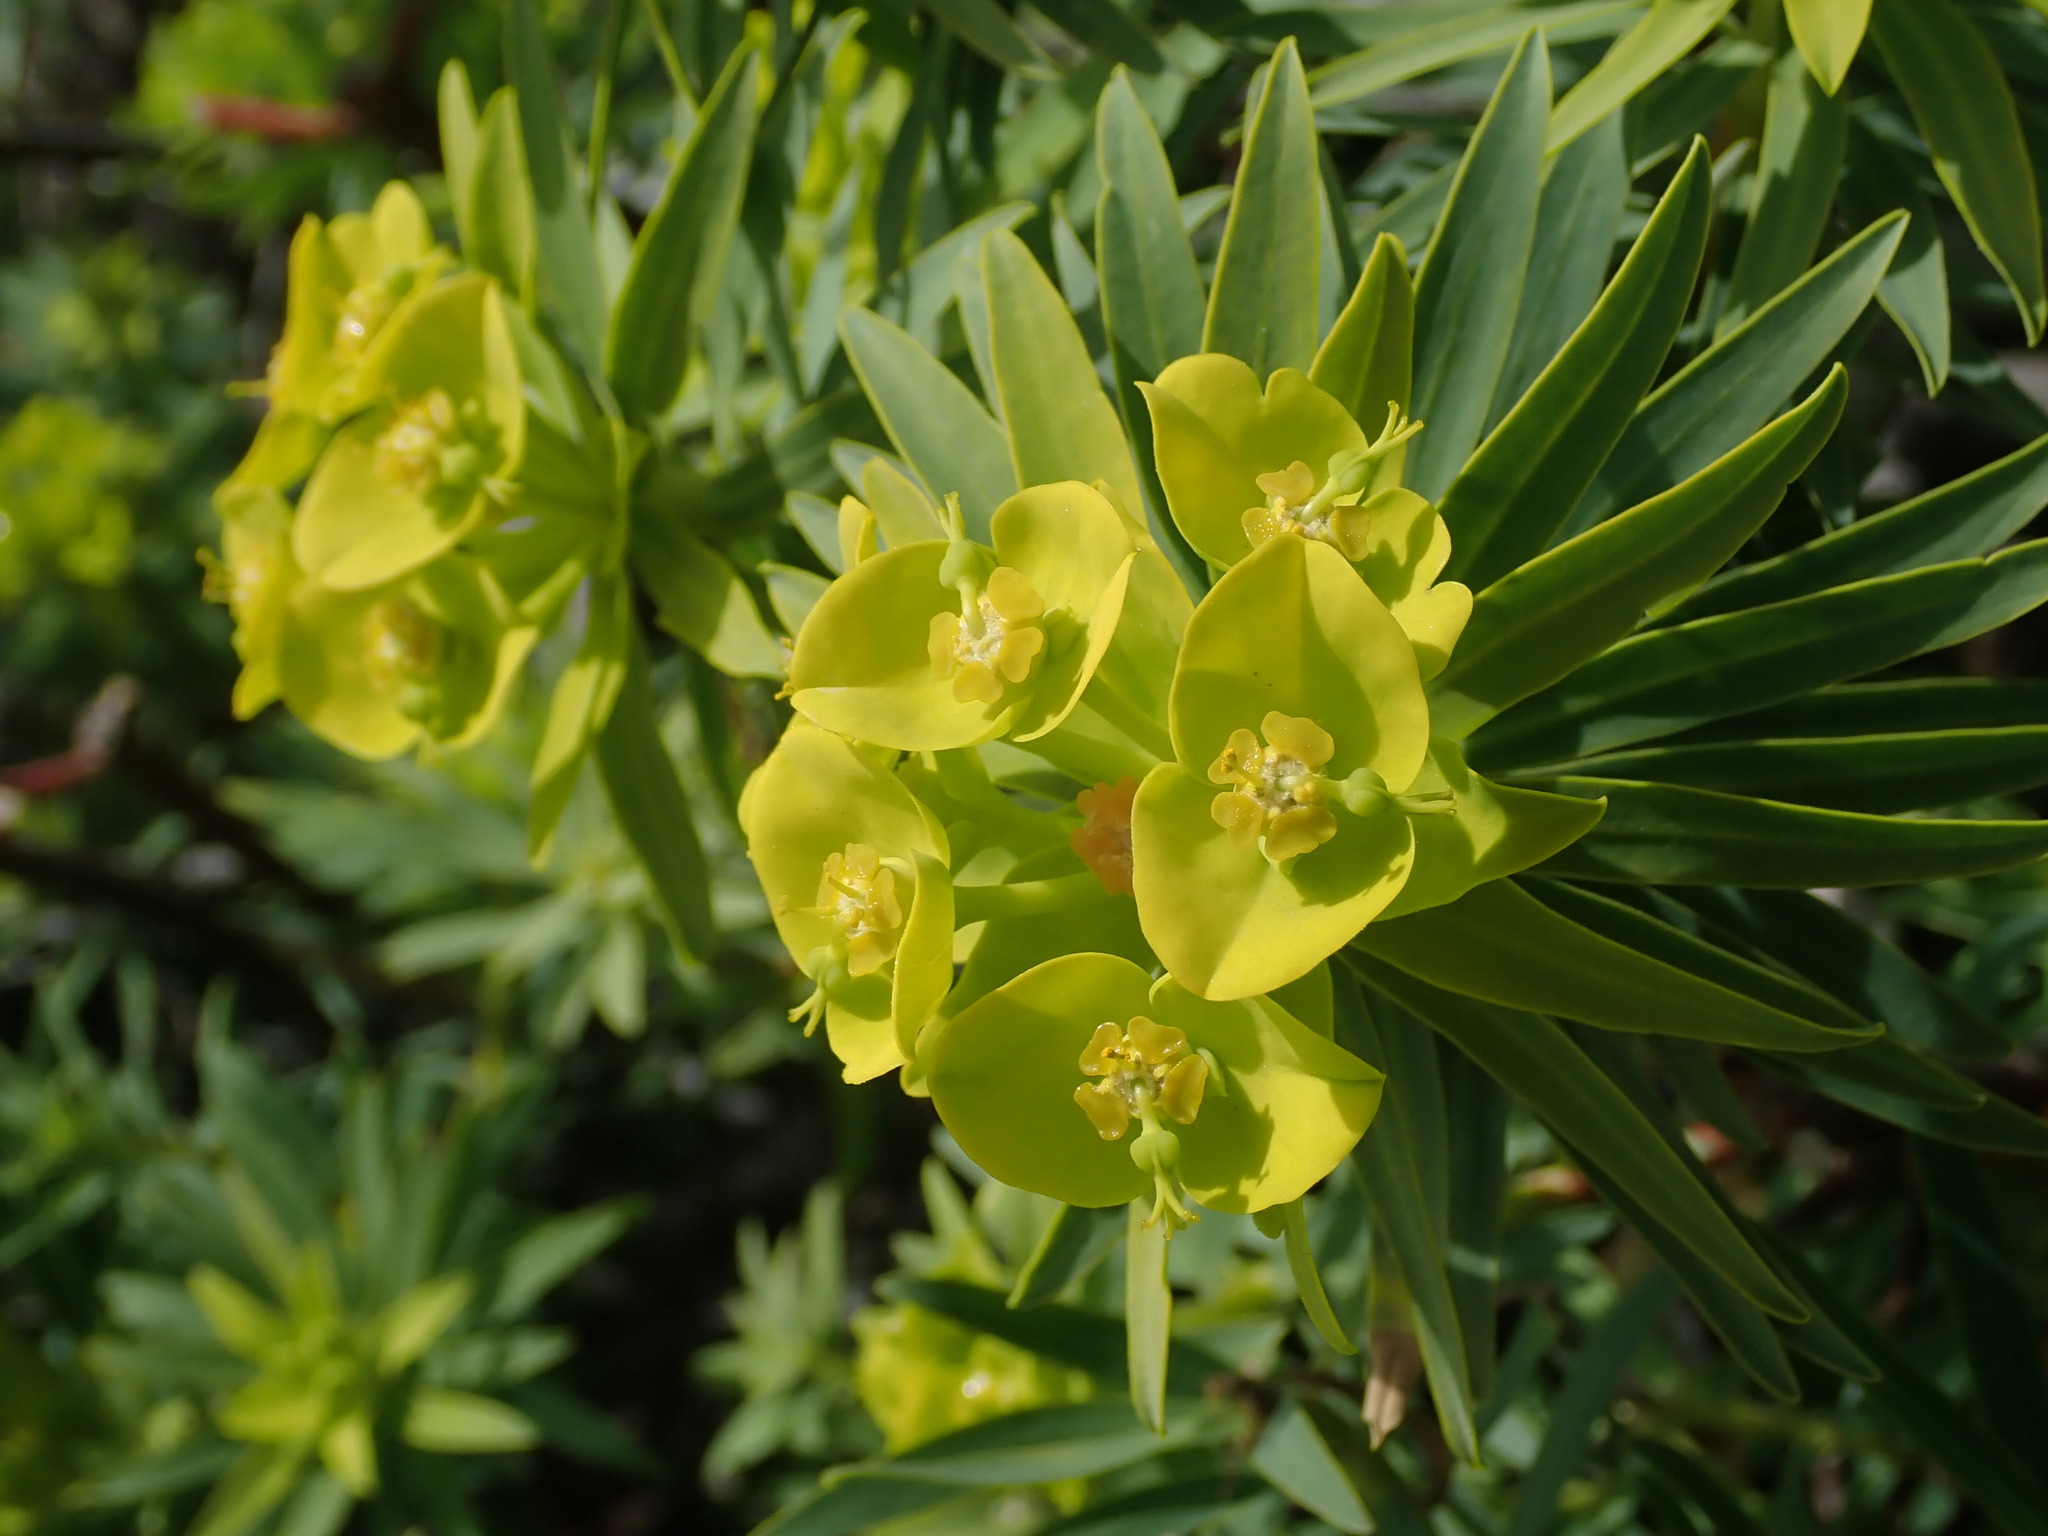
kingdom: Plantae
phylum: Tracheophyta
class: Magnoliopsida
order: Malpighiales
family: Euphorbiaceae
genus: Euphorbia
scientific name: Euphorbia dendroides
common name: Tree spurge
